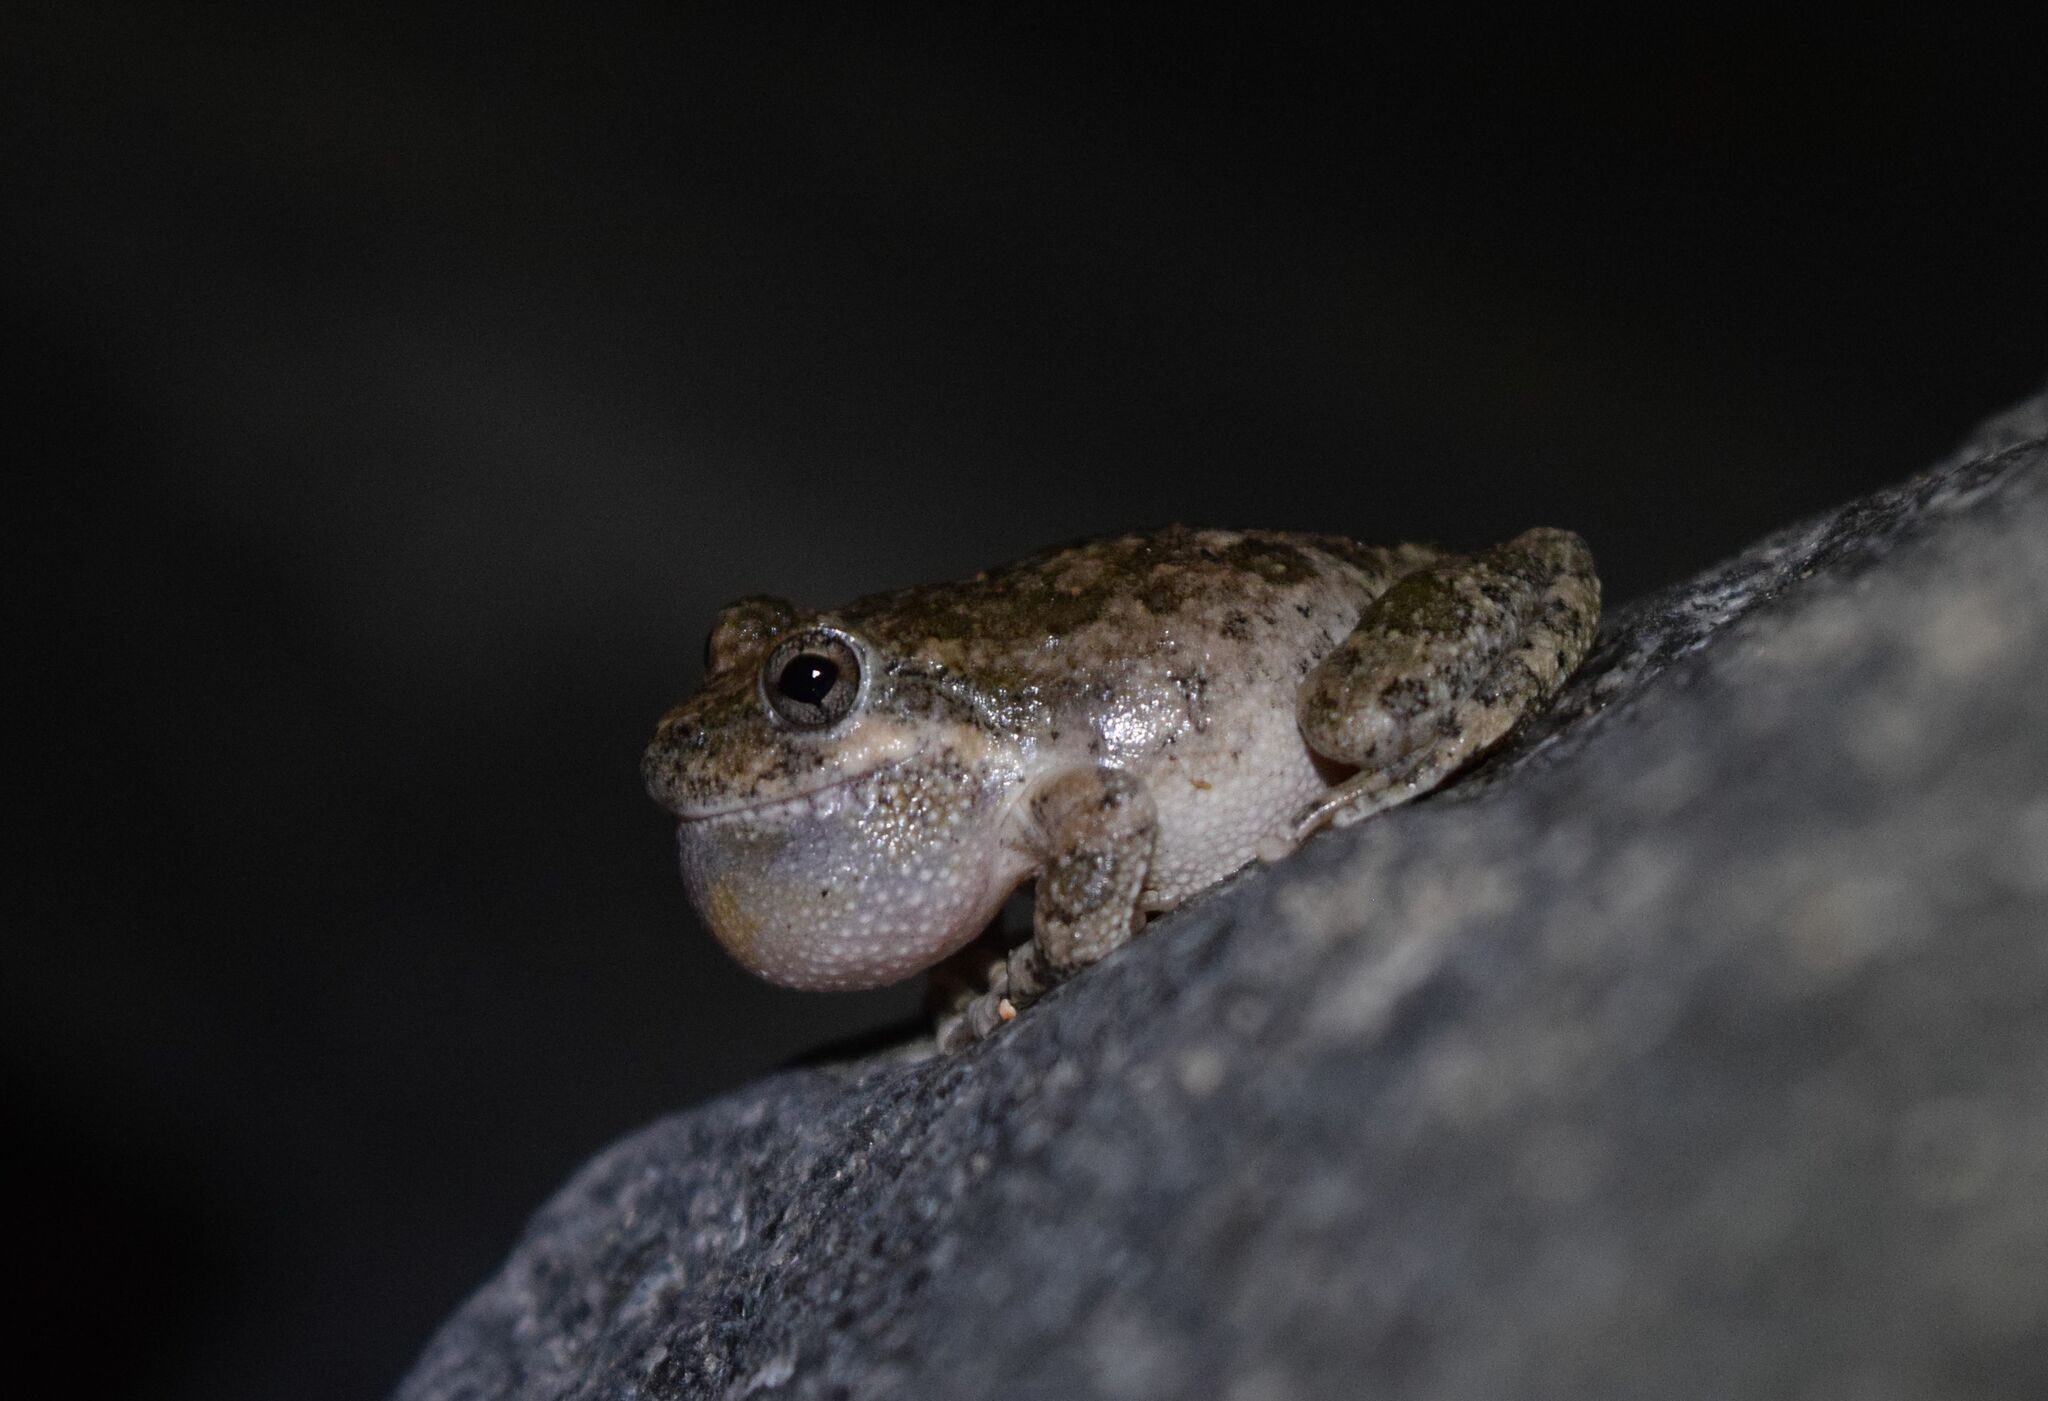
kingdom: Animalia
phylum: Chordata
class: Amphibia
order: Anura
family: Hylidae
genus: Pseudacris
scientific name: Pseudacris cadaverina
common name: California chorus frog
